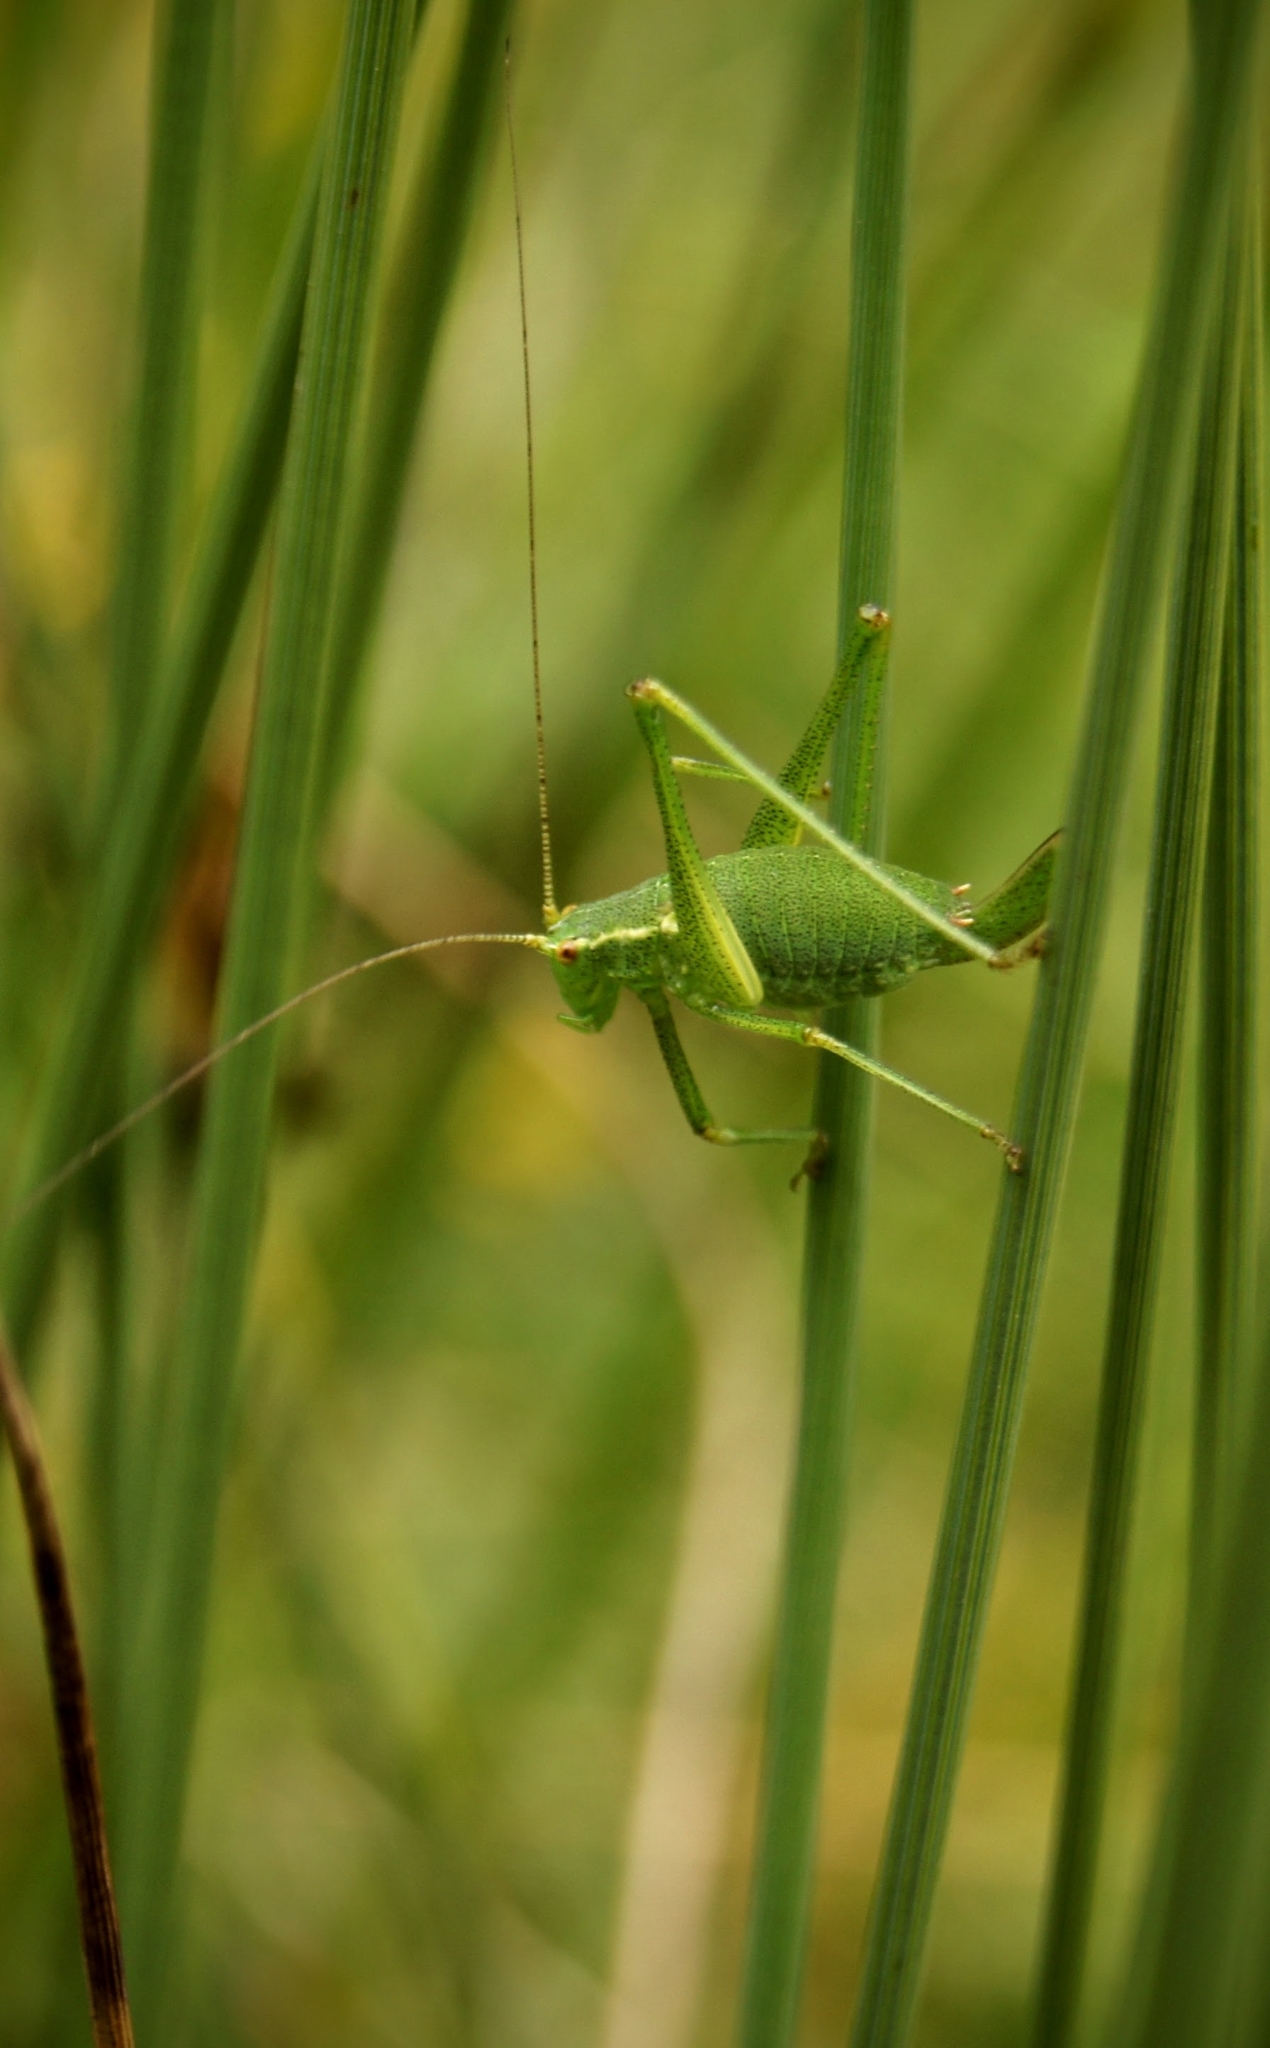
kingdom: Animalia
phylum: Arthropoda
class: Insecta
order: Orthoptera
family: Tettigoniidae
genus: Leptophyes
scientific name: Leptophyes punctatissima
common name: Speckled bush-cricket
